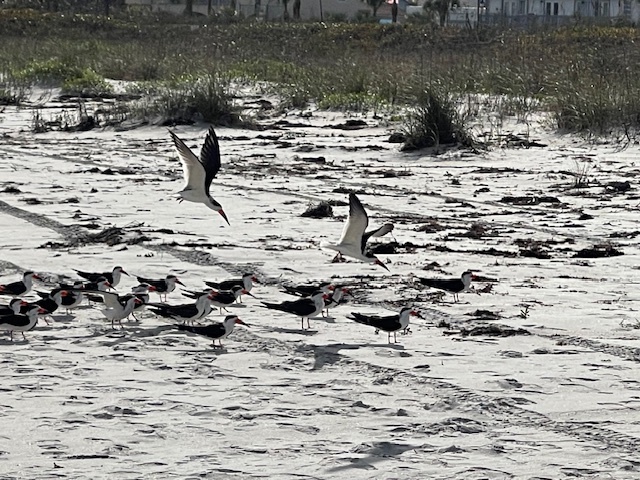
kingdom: Animalia
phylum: Chordata
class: Aves
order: Charadriiformes
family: Laridae
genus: Rynchops
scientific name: Rynchops niger
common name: Black skimmer
